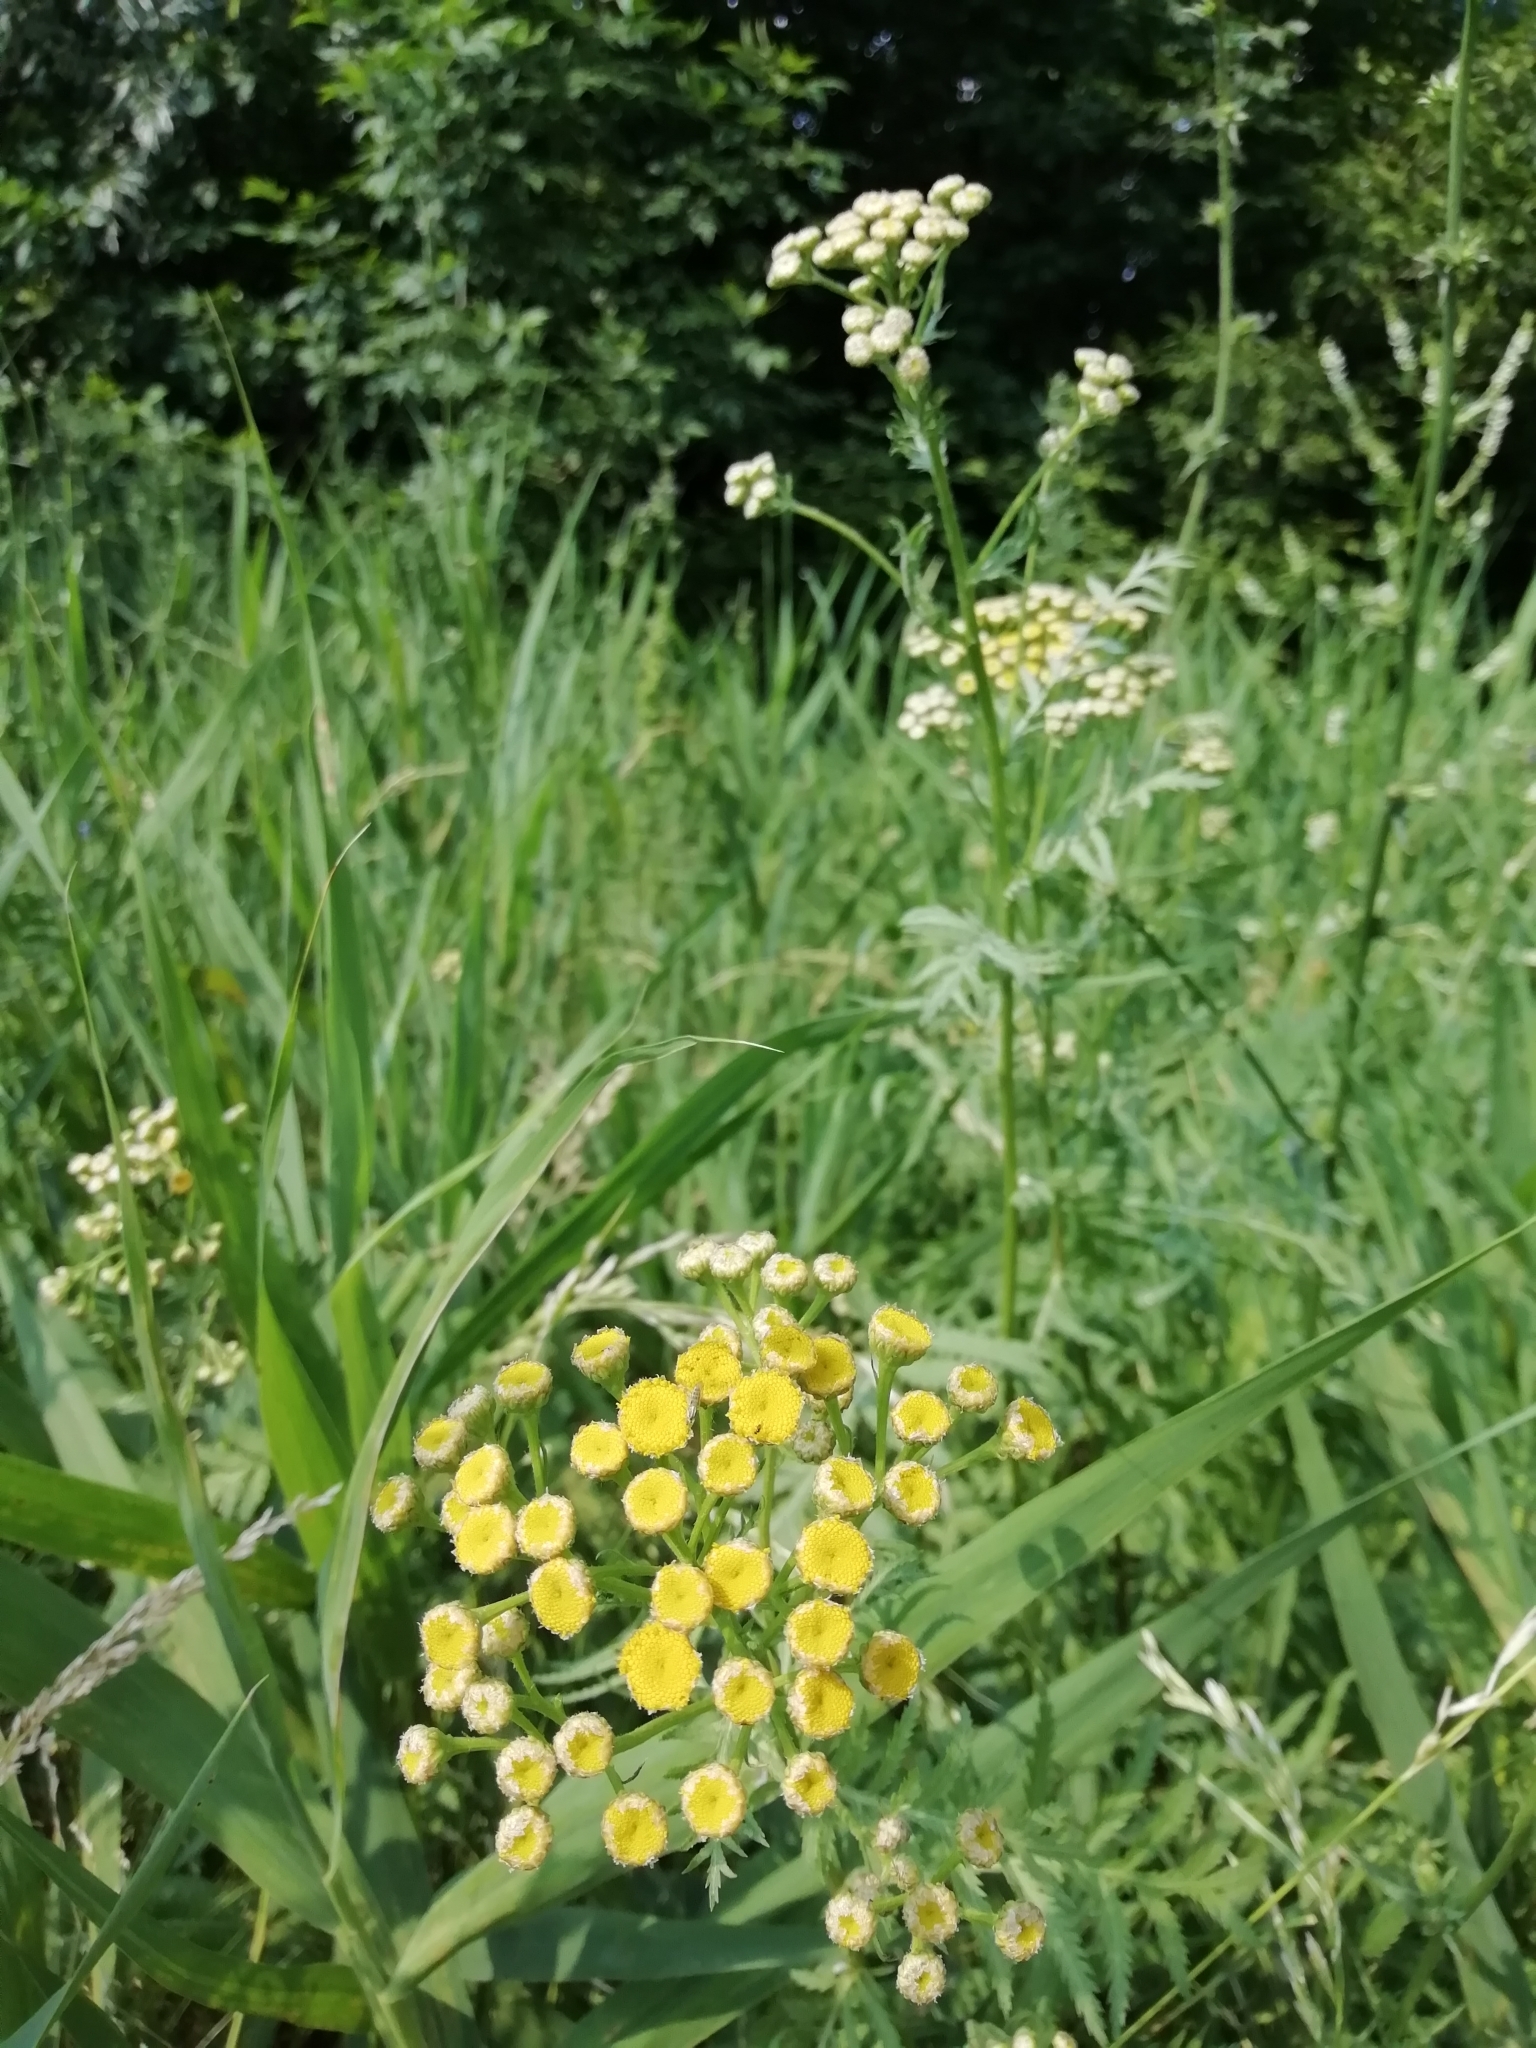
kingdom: Plantae
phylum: Tracheophyta
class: Magnoliopsida
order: Asterales
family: Asteraceae
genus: Tanacetum
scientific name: Tanacetum vulgare
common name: Common tansy
